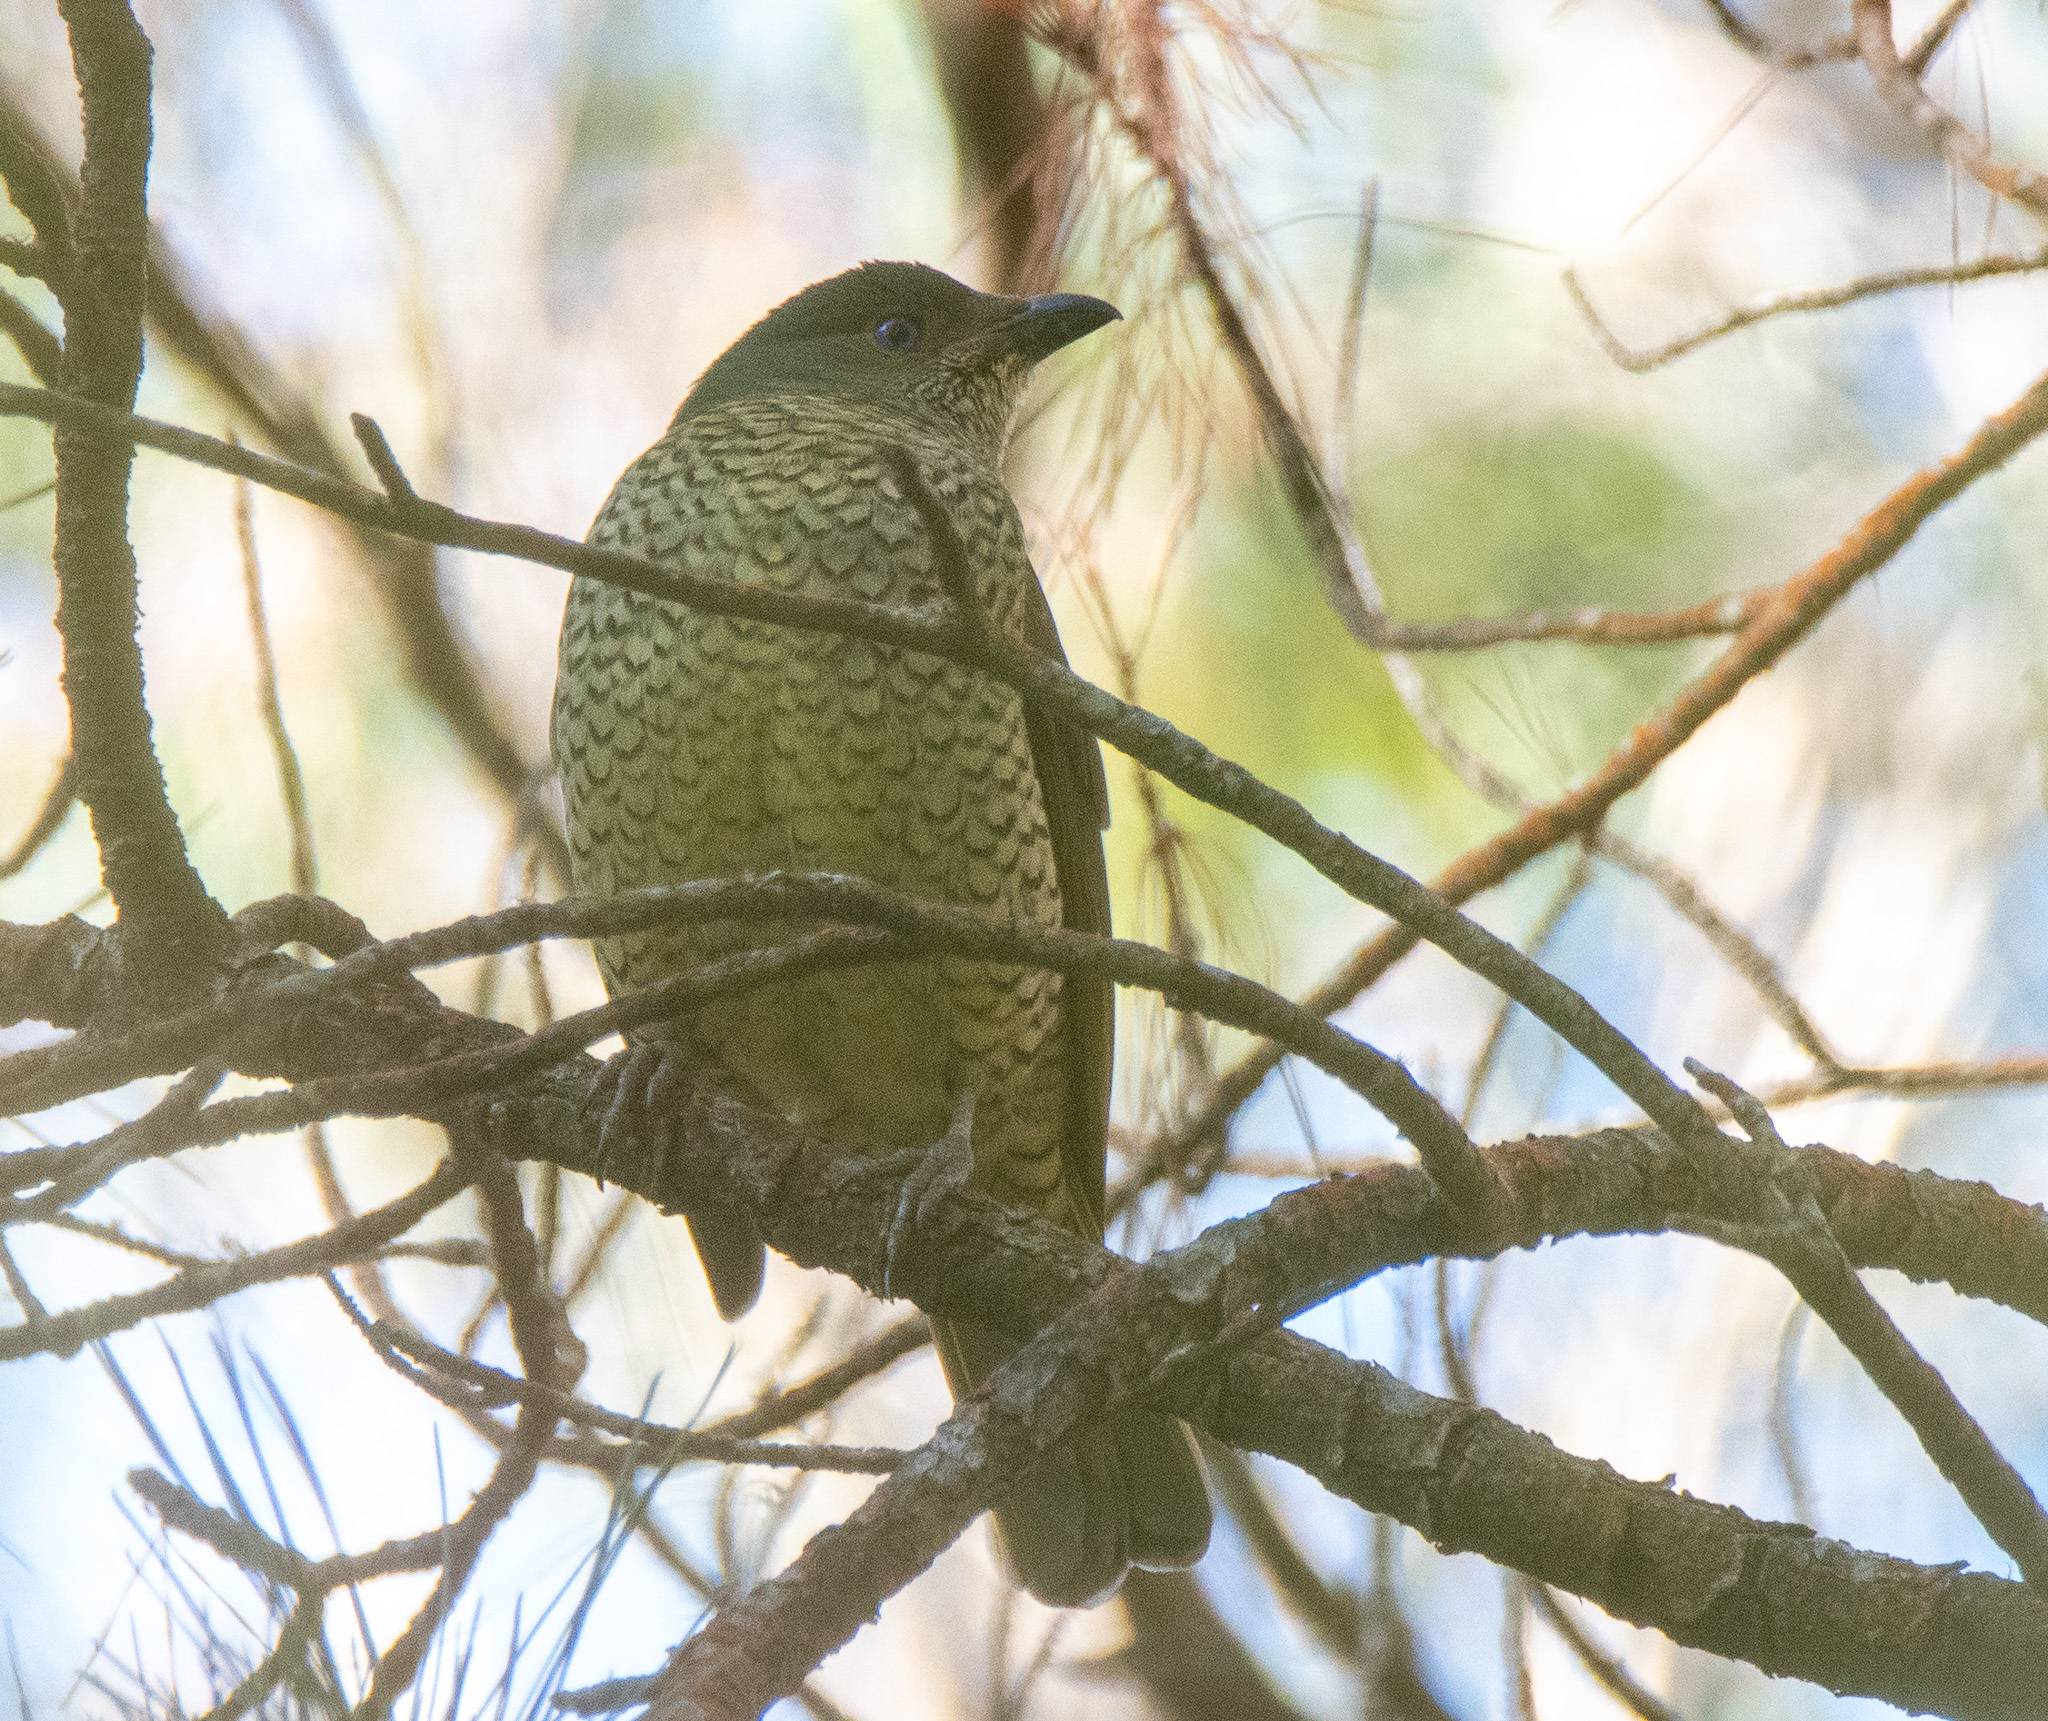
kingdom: Animalia
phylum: Chordata
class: Aves
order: Passeriformes
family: Ptilonorhynchidae
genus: Ptilonorhynchus
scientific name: Ptilonorhynchus violaceus
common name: Satin bowerbird
